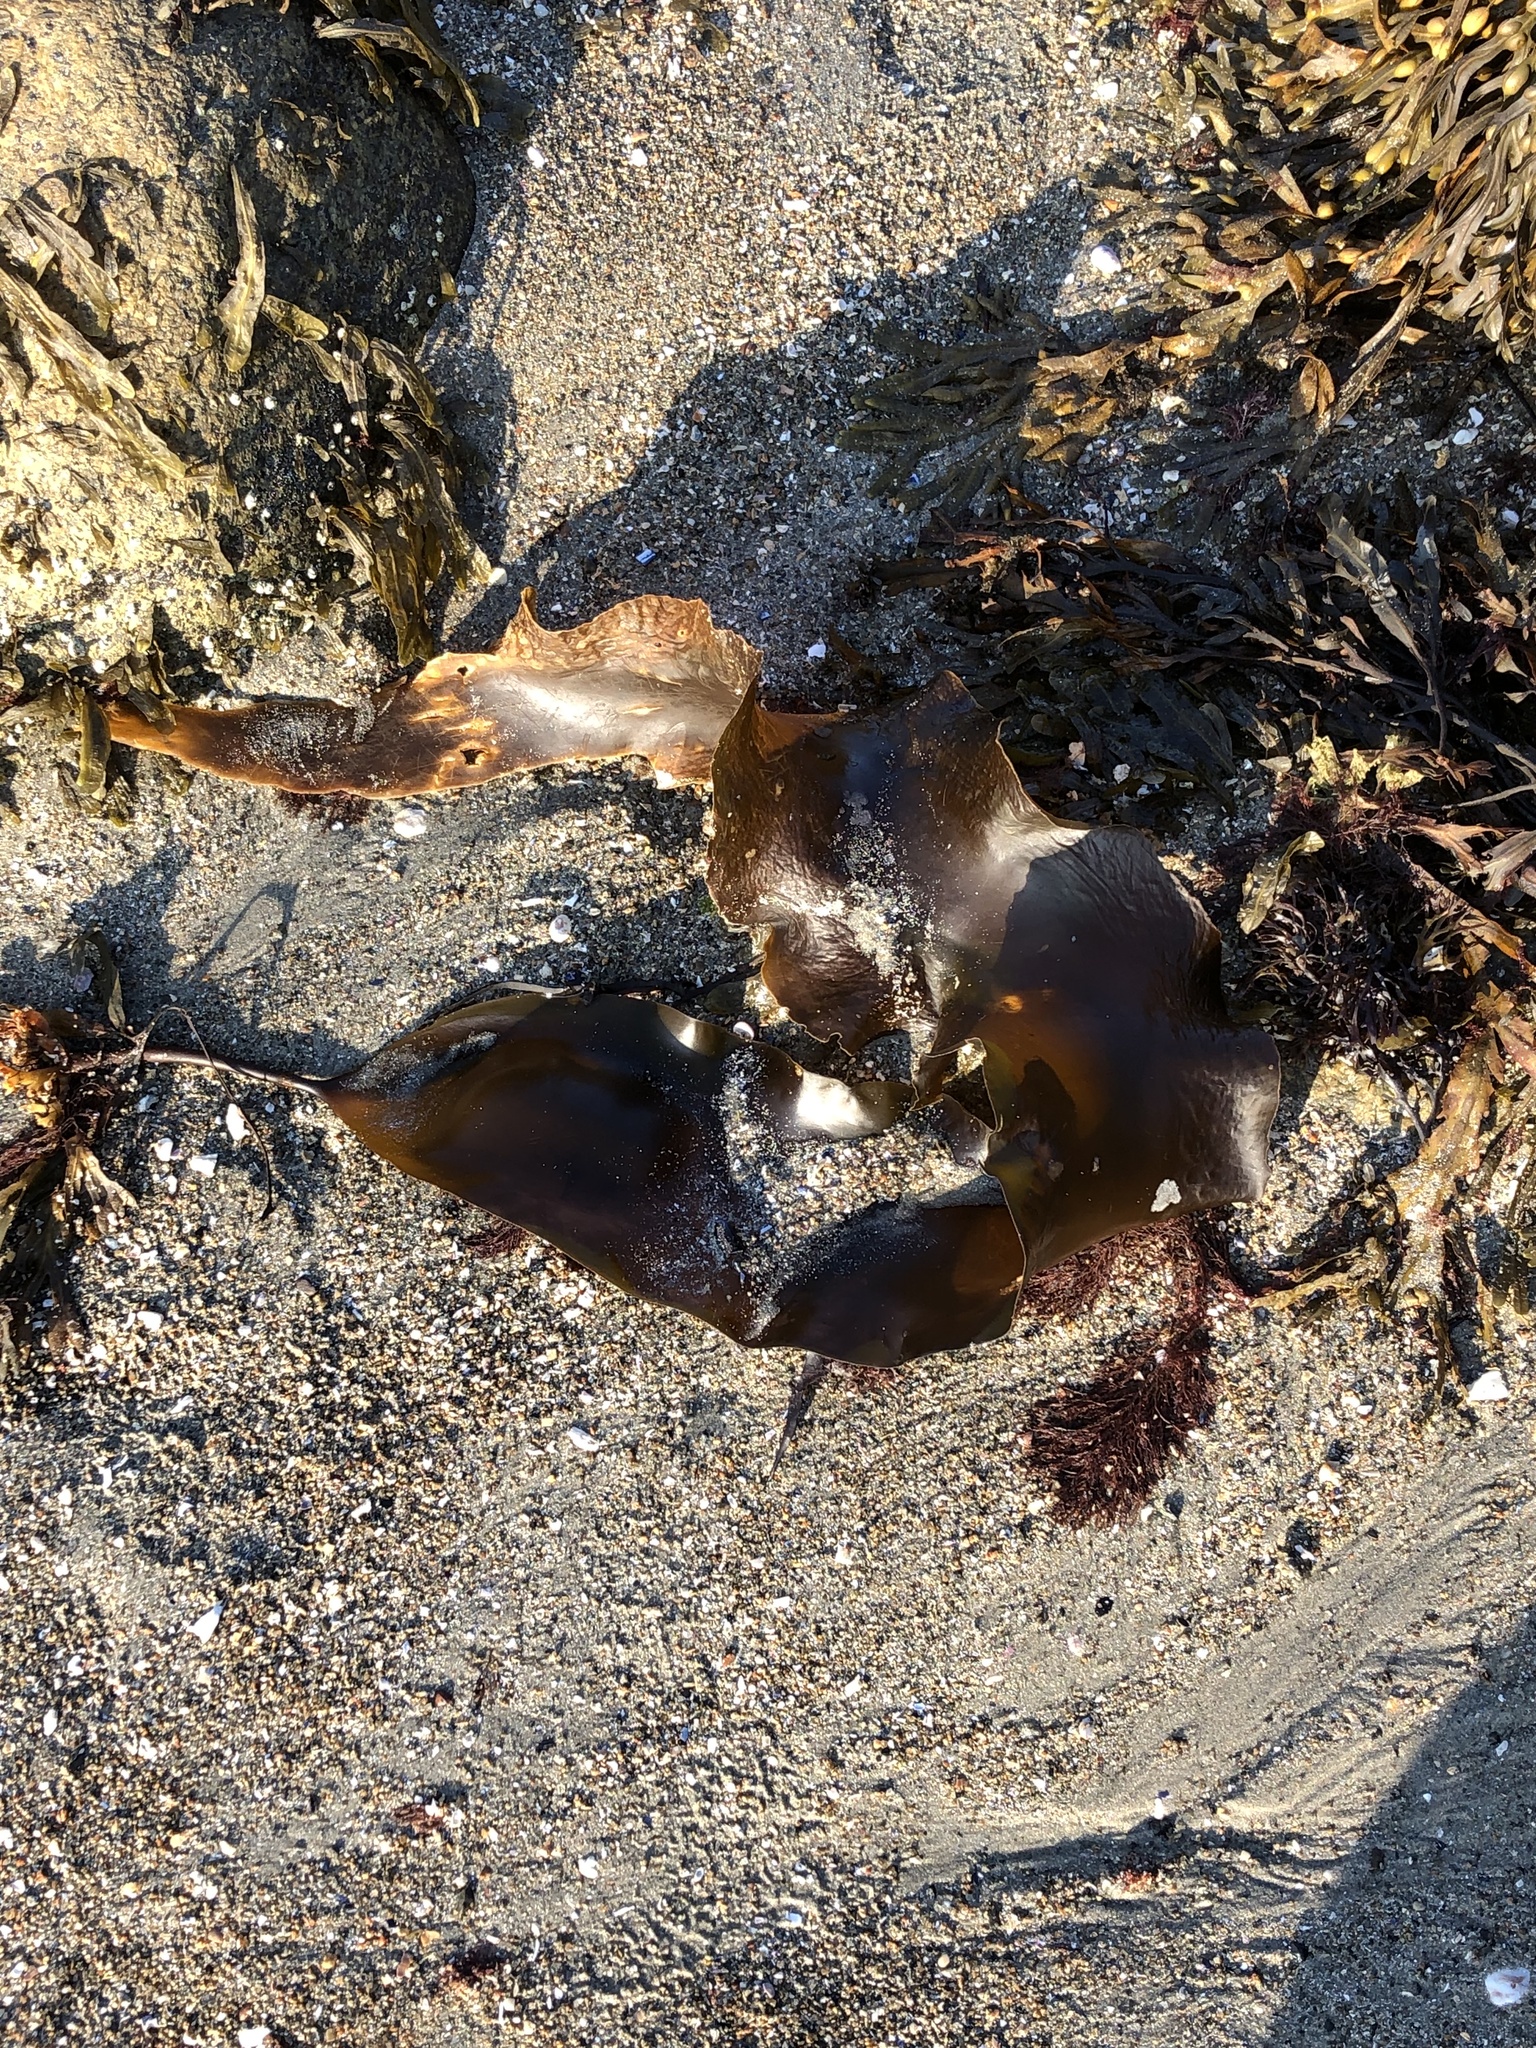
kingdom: Chromista
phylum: Ochrophyta
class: Phaeophyceae
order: Laminariales
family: Laminariaceae
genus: Saccharina
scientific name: Saccharina latissima
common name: Poor man's weather glass
